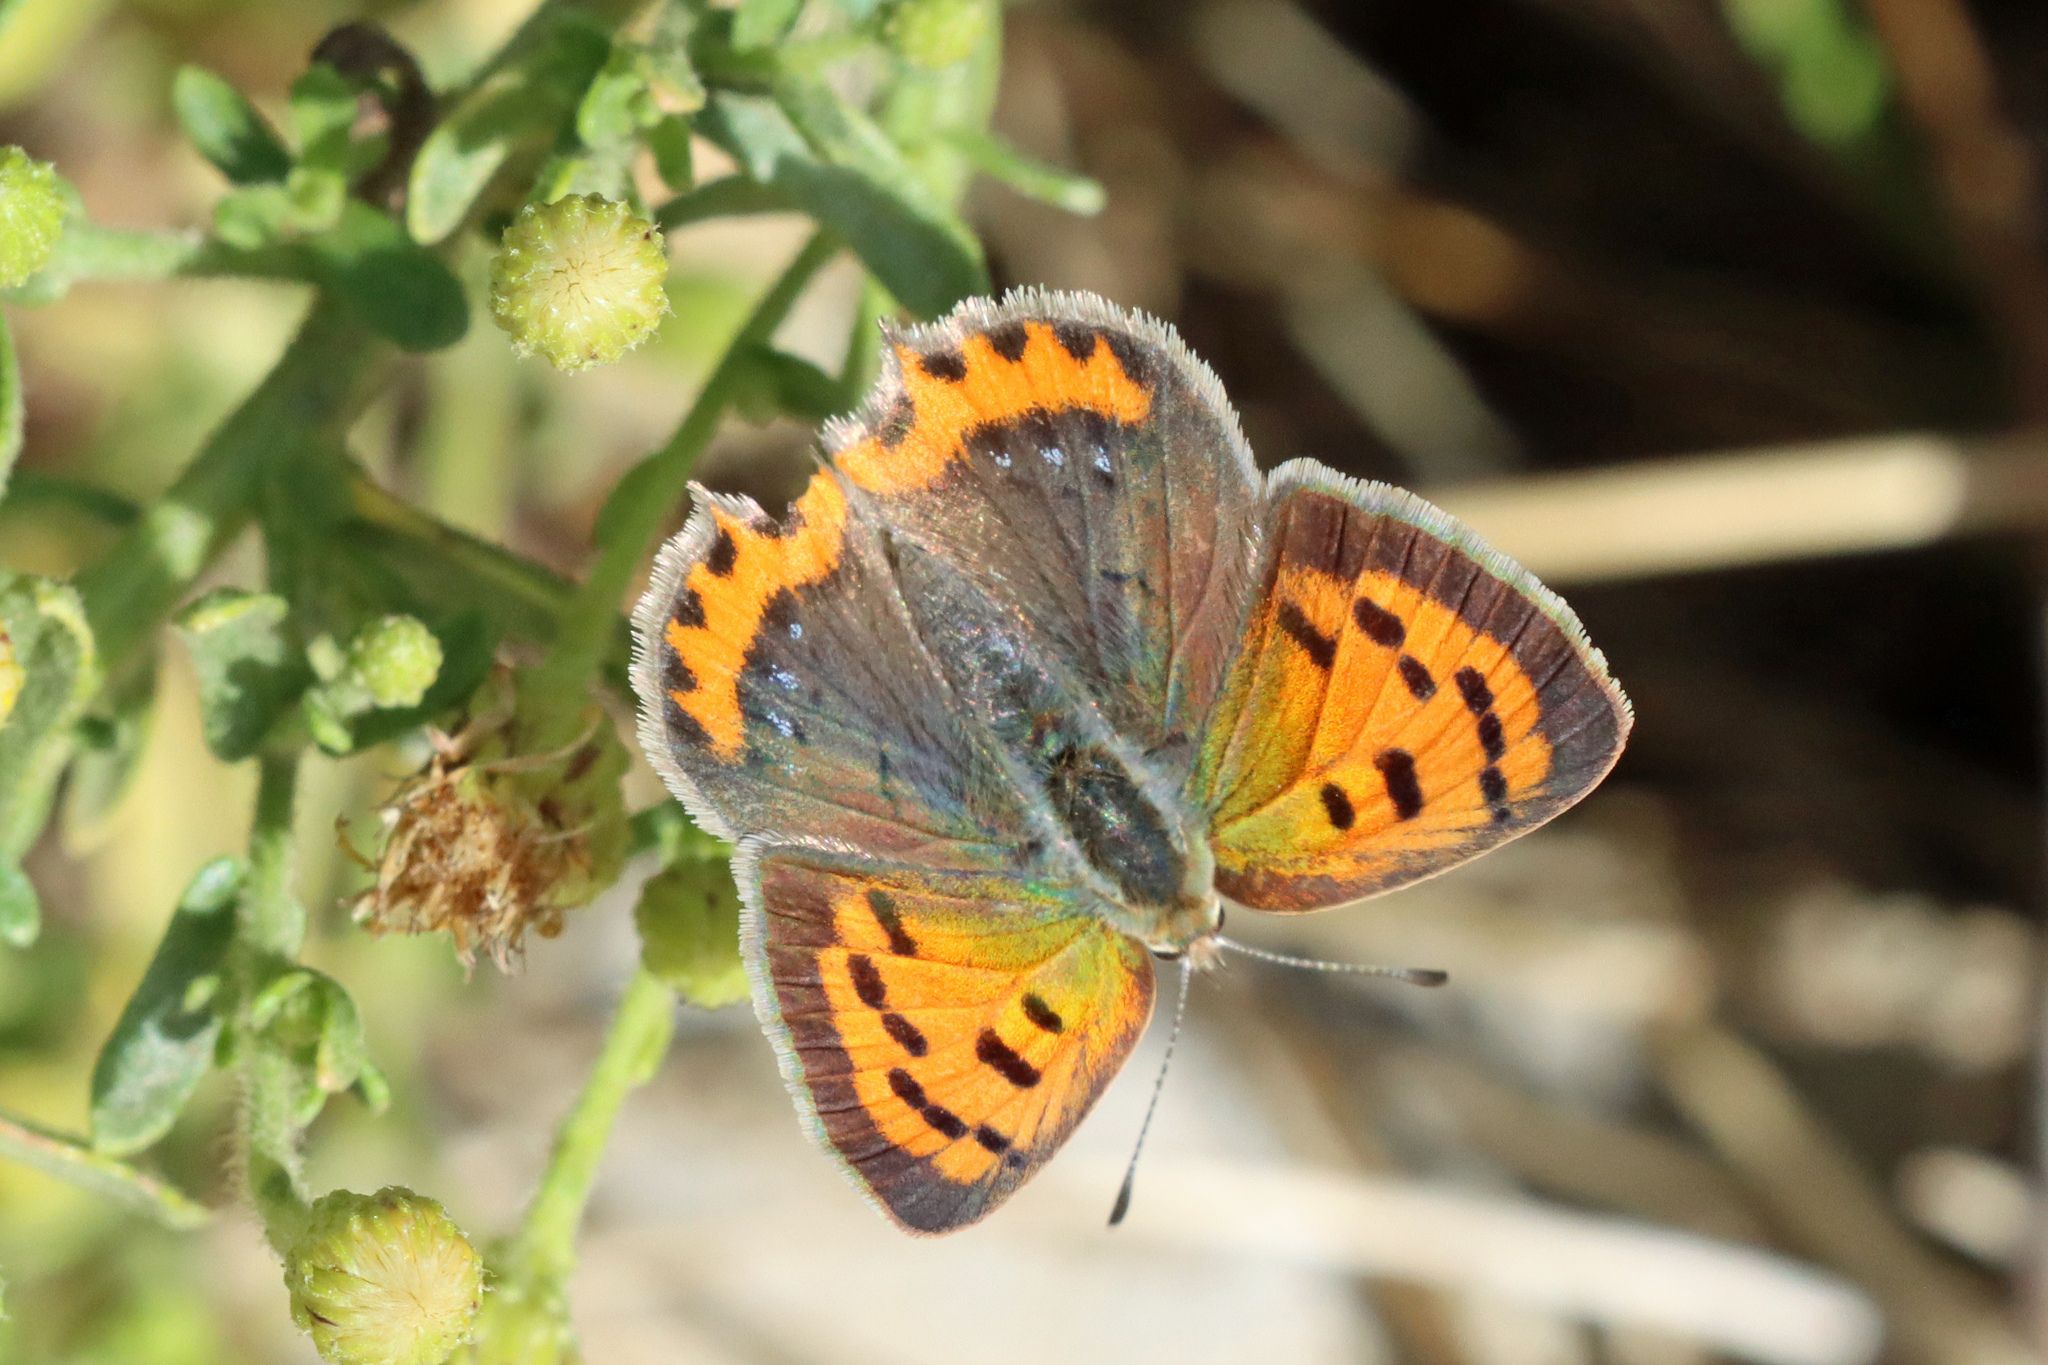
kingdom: Animalia
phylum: Arthropoda
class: Insecta
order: Lepidoptera
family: Lycaenidae
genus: Lycaena
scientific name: Lycaena phlaeas
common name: Small copper
